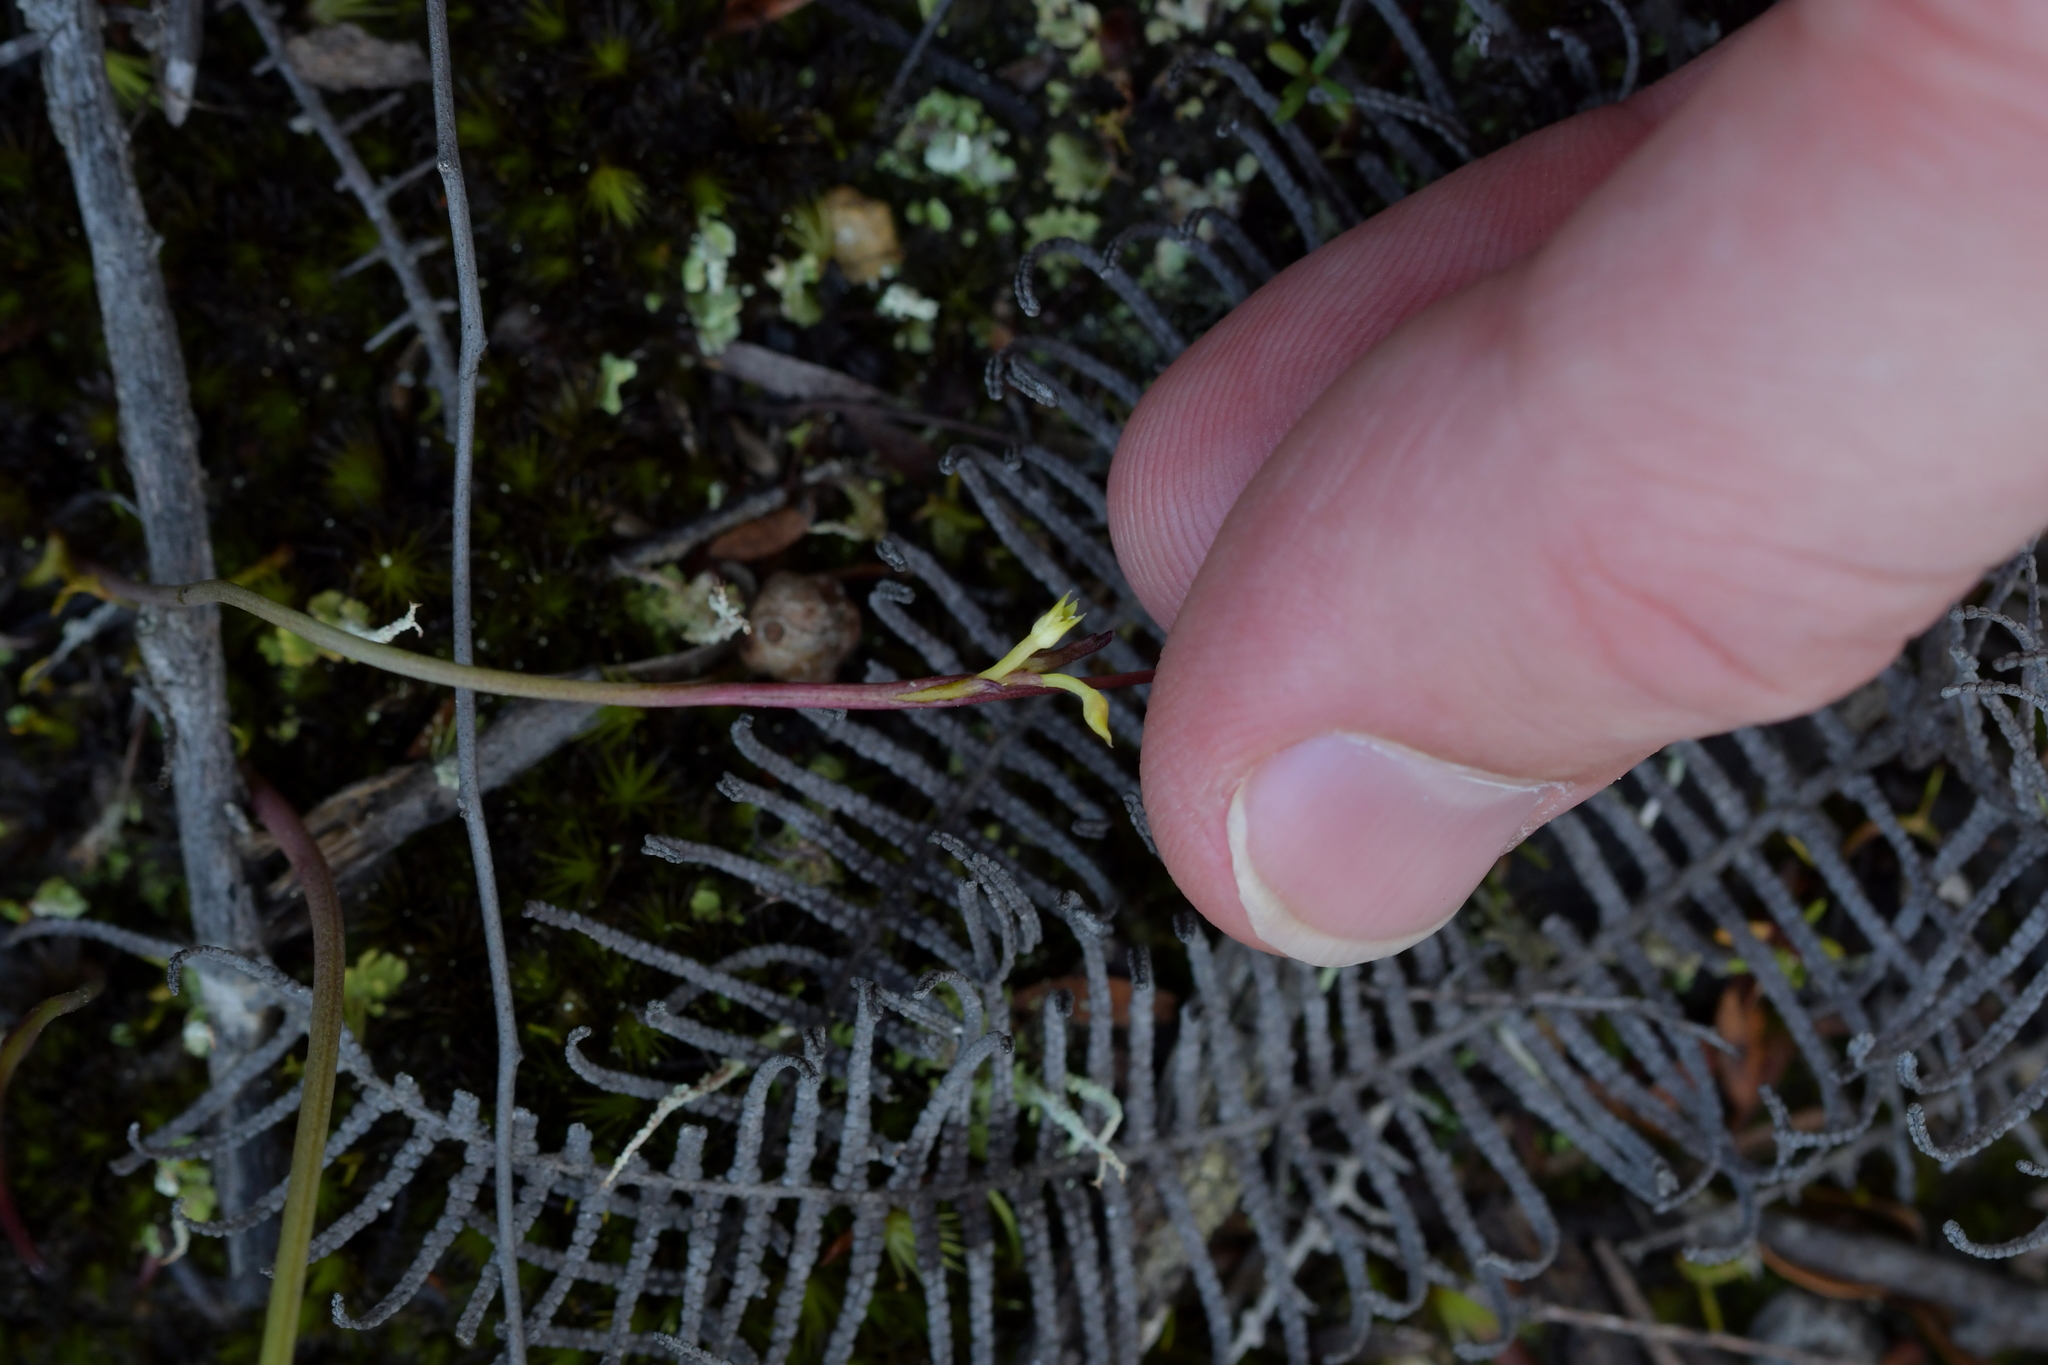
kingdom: Plantae
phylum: Tracheophyta
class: Liliopsida
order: Asparagales
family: Orchidaceae
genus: Genoplesium
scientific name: Genoplesium pumilum
